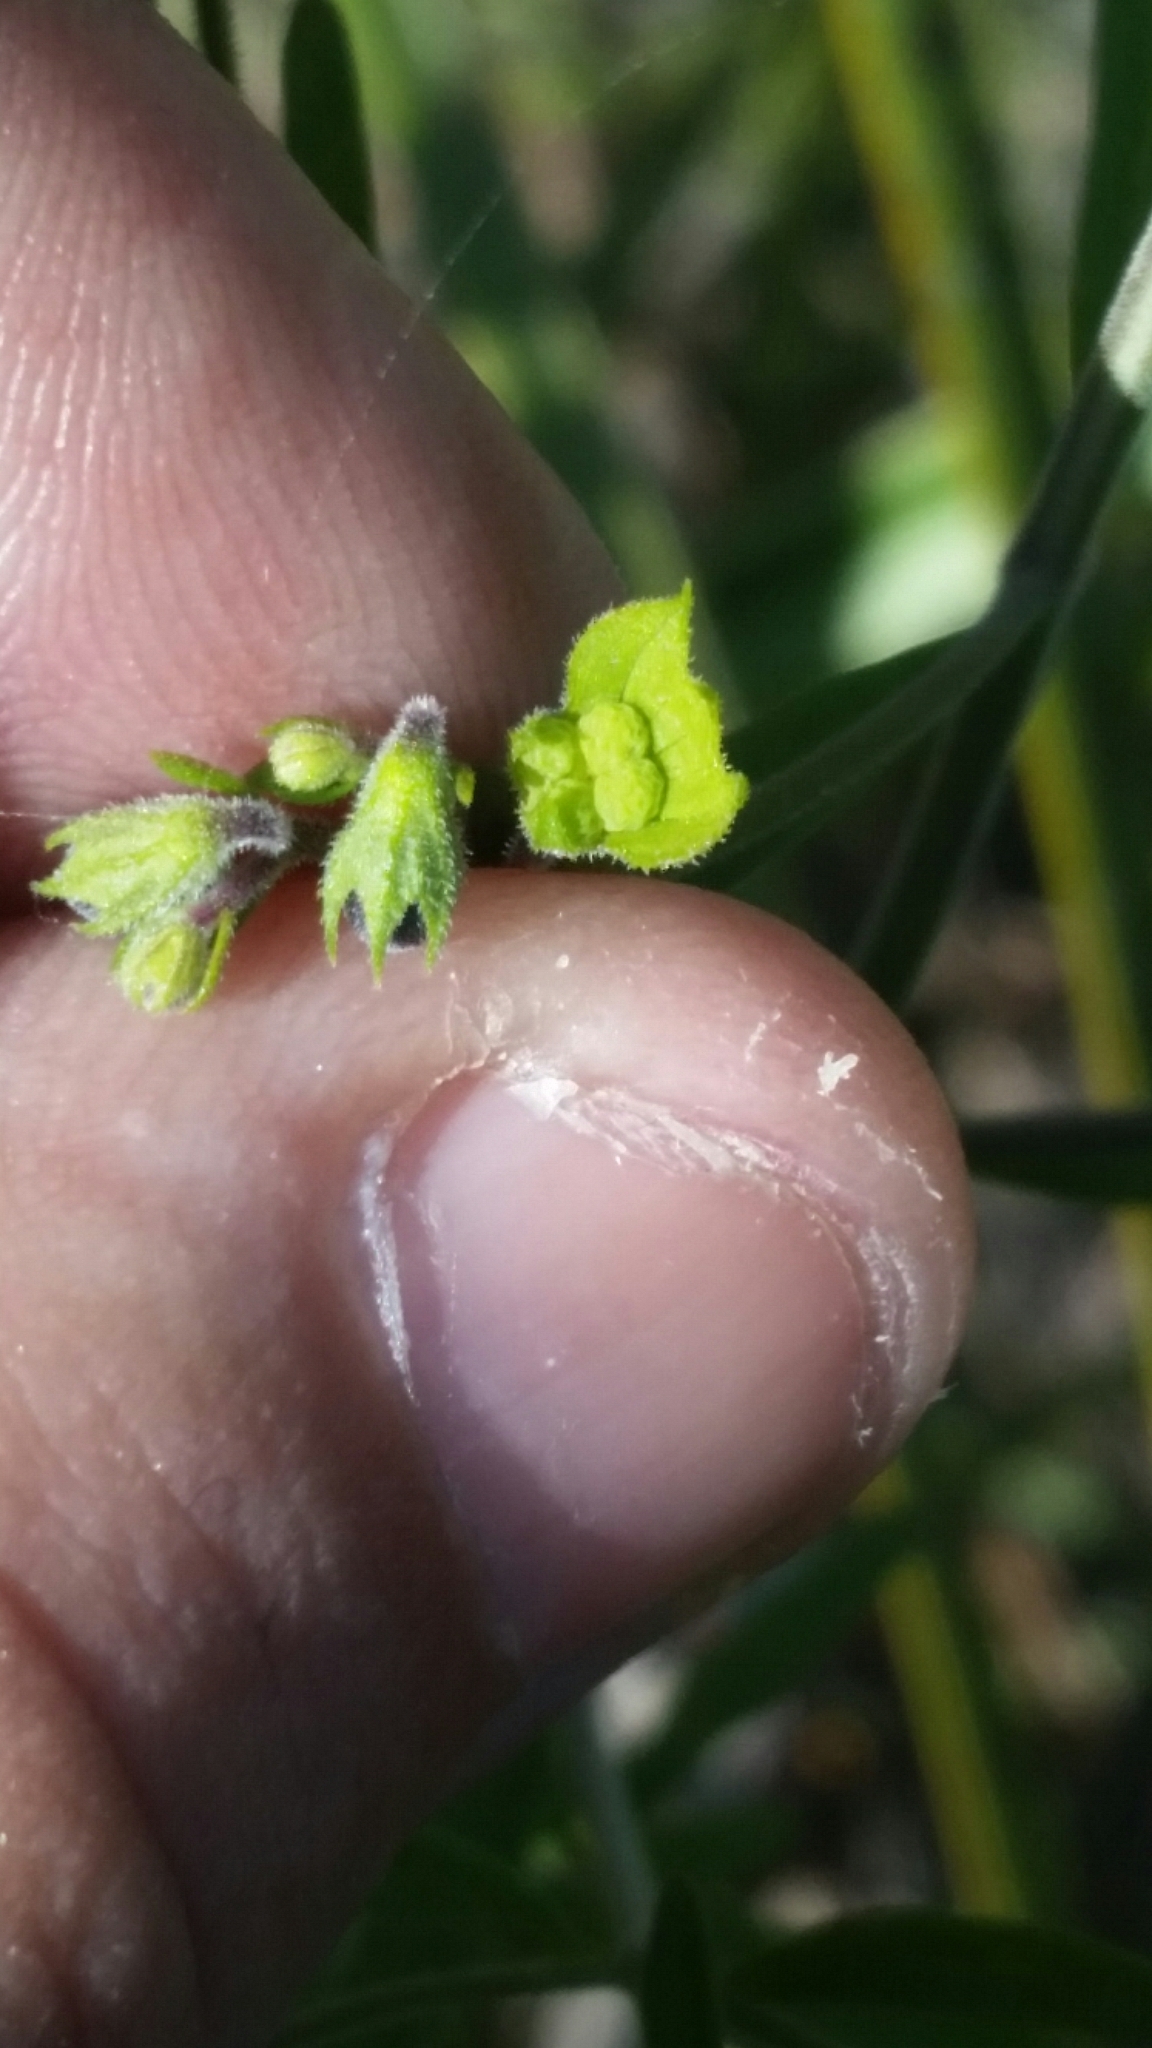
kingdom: Plantae
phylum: Tracheophyta
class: Magnoliopsida
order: Lamiales
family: Lamiaceae
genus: Trichostema
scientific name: Trichostema gracile
